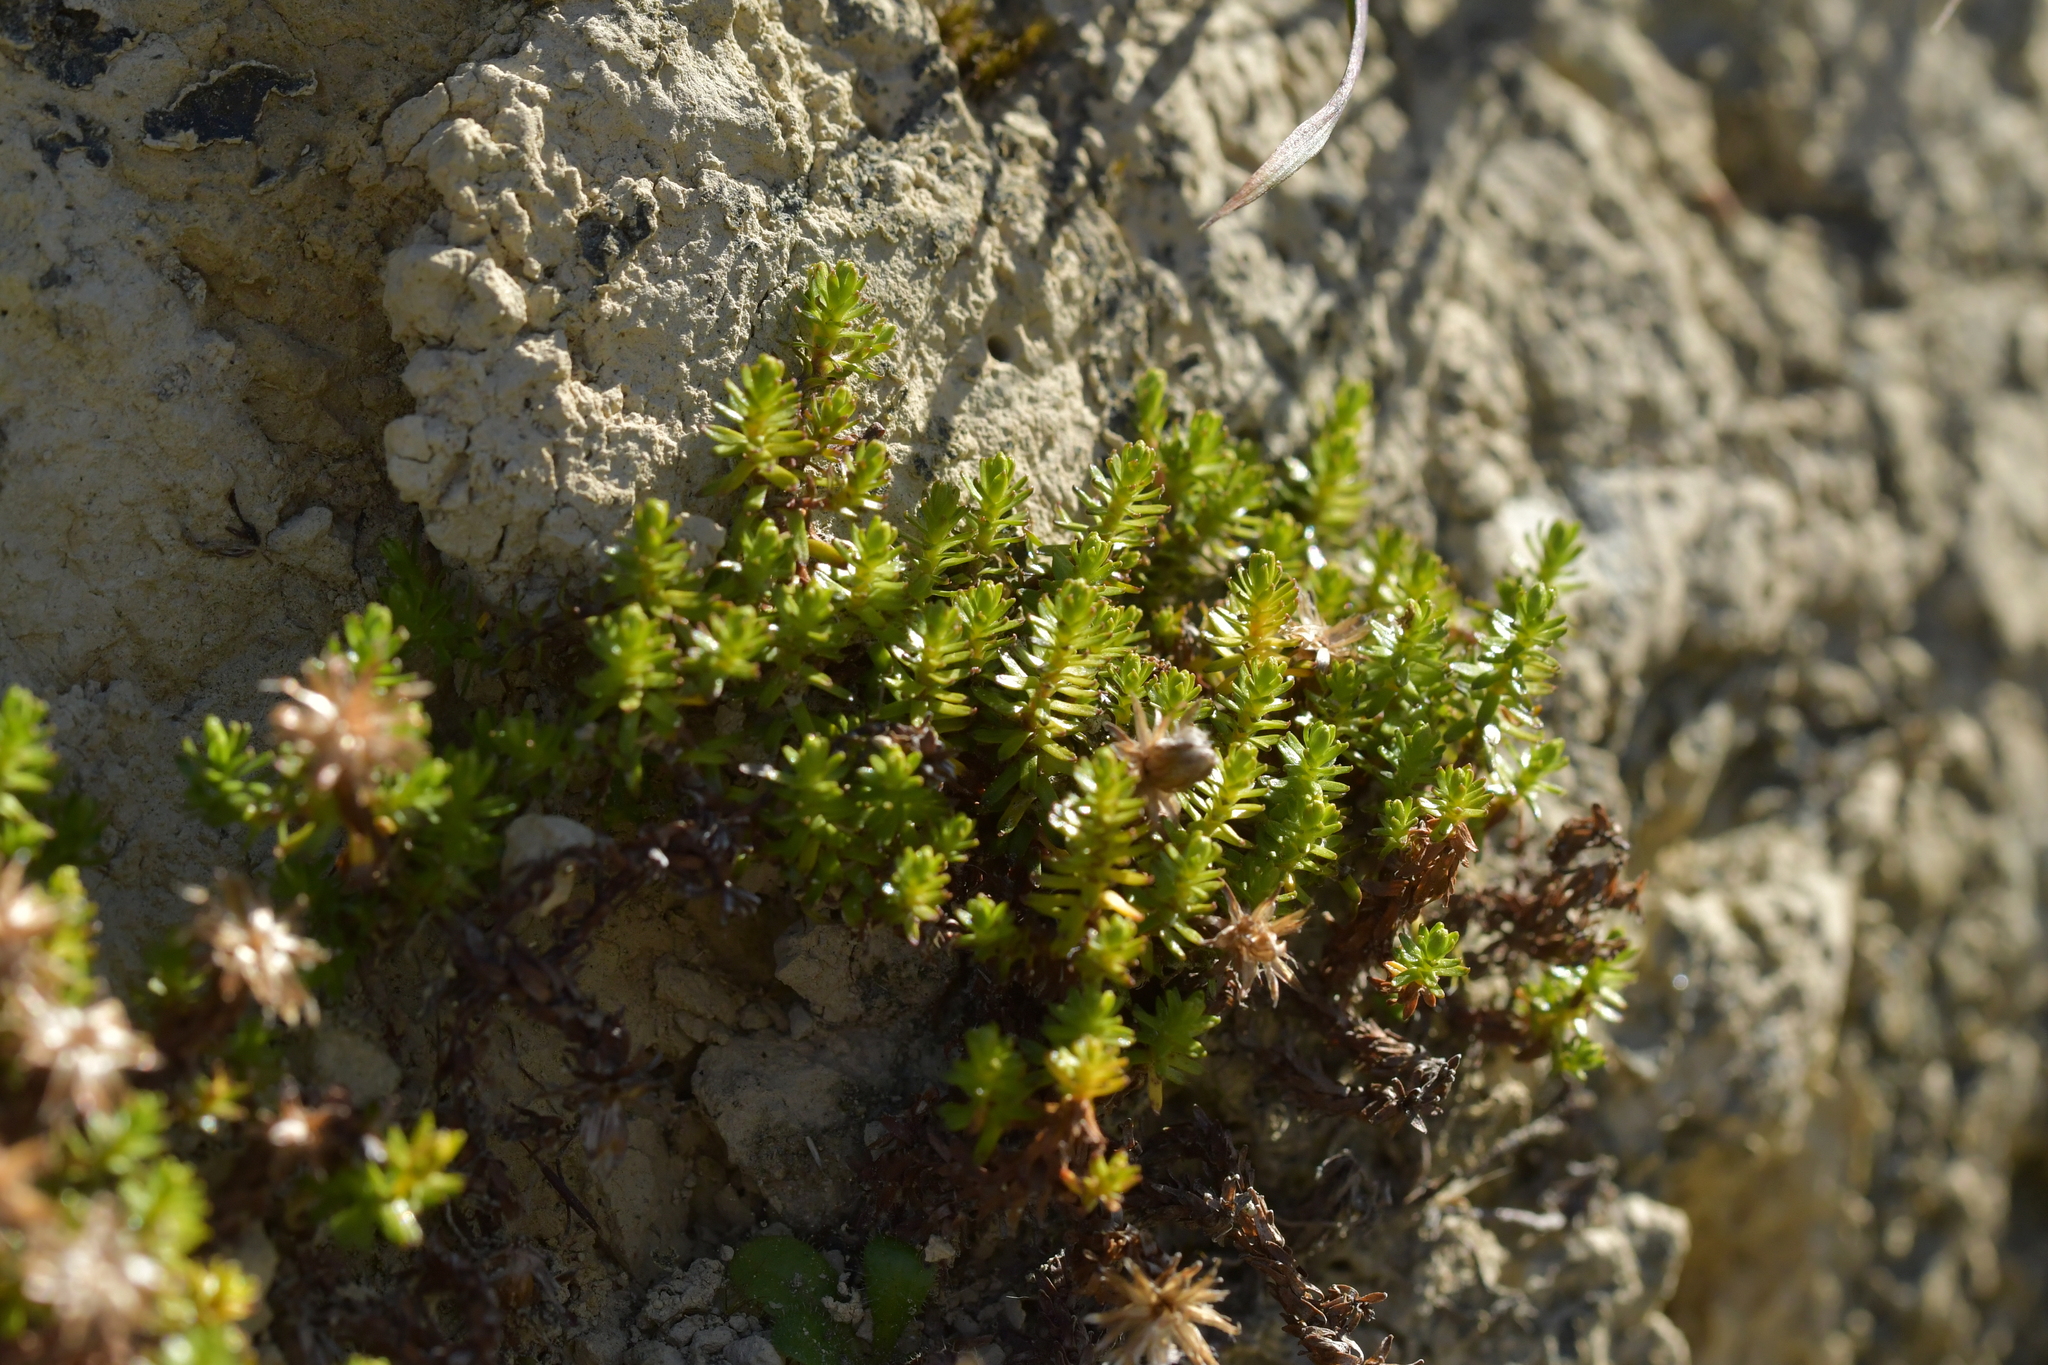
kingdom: Plantae
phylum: Tracheophyta
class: Magnoliopsida
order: Asterales
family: Asteraceae
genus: Raoulia
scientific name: Raoulia glabra
